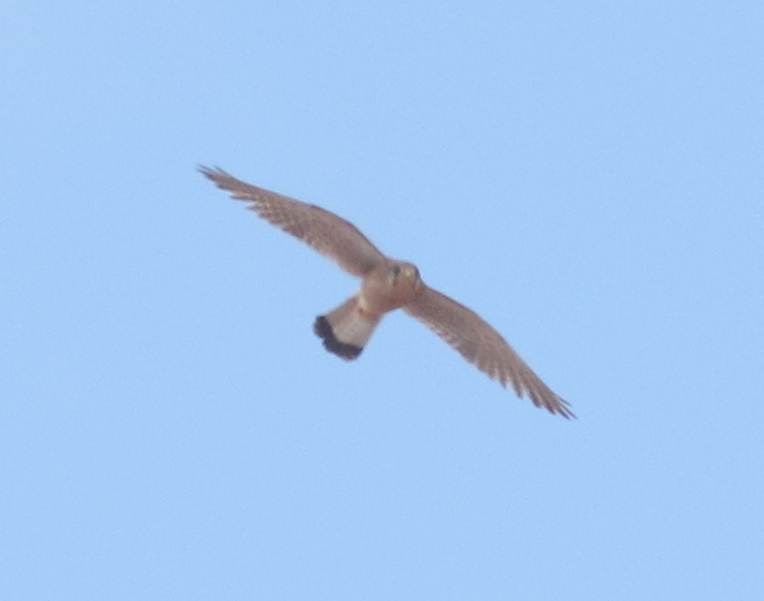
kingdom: Animalia
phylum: Chordata
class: Aves
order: Falconiformes
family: Falconidae
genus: Falco
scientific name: Falco tinnunculus
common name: Common kestrel
